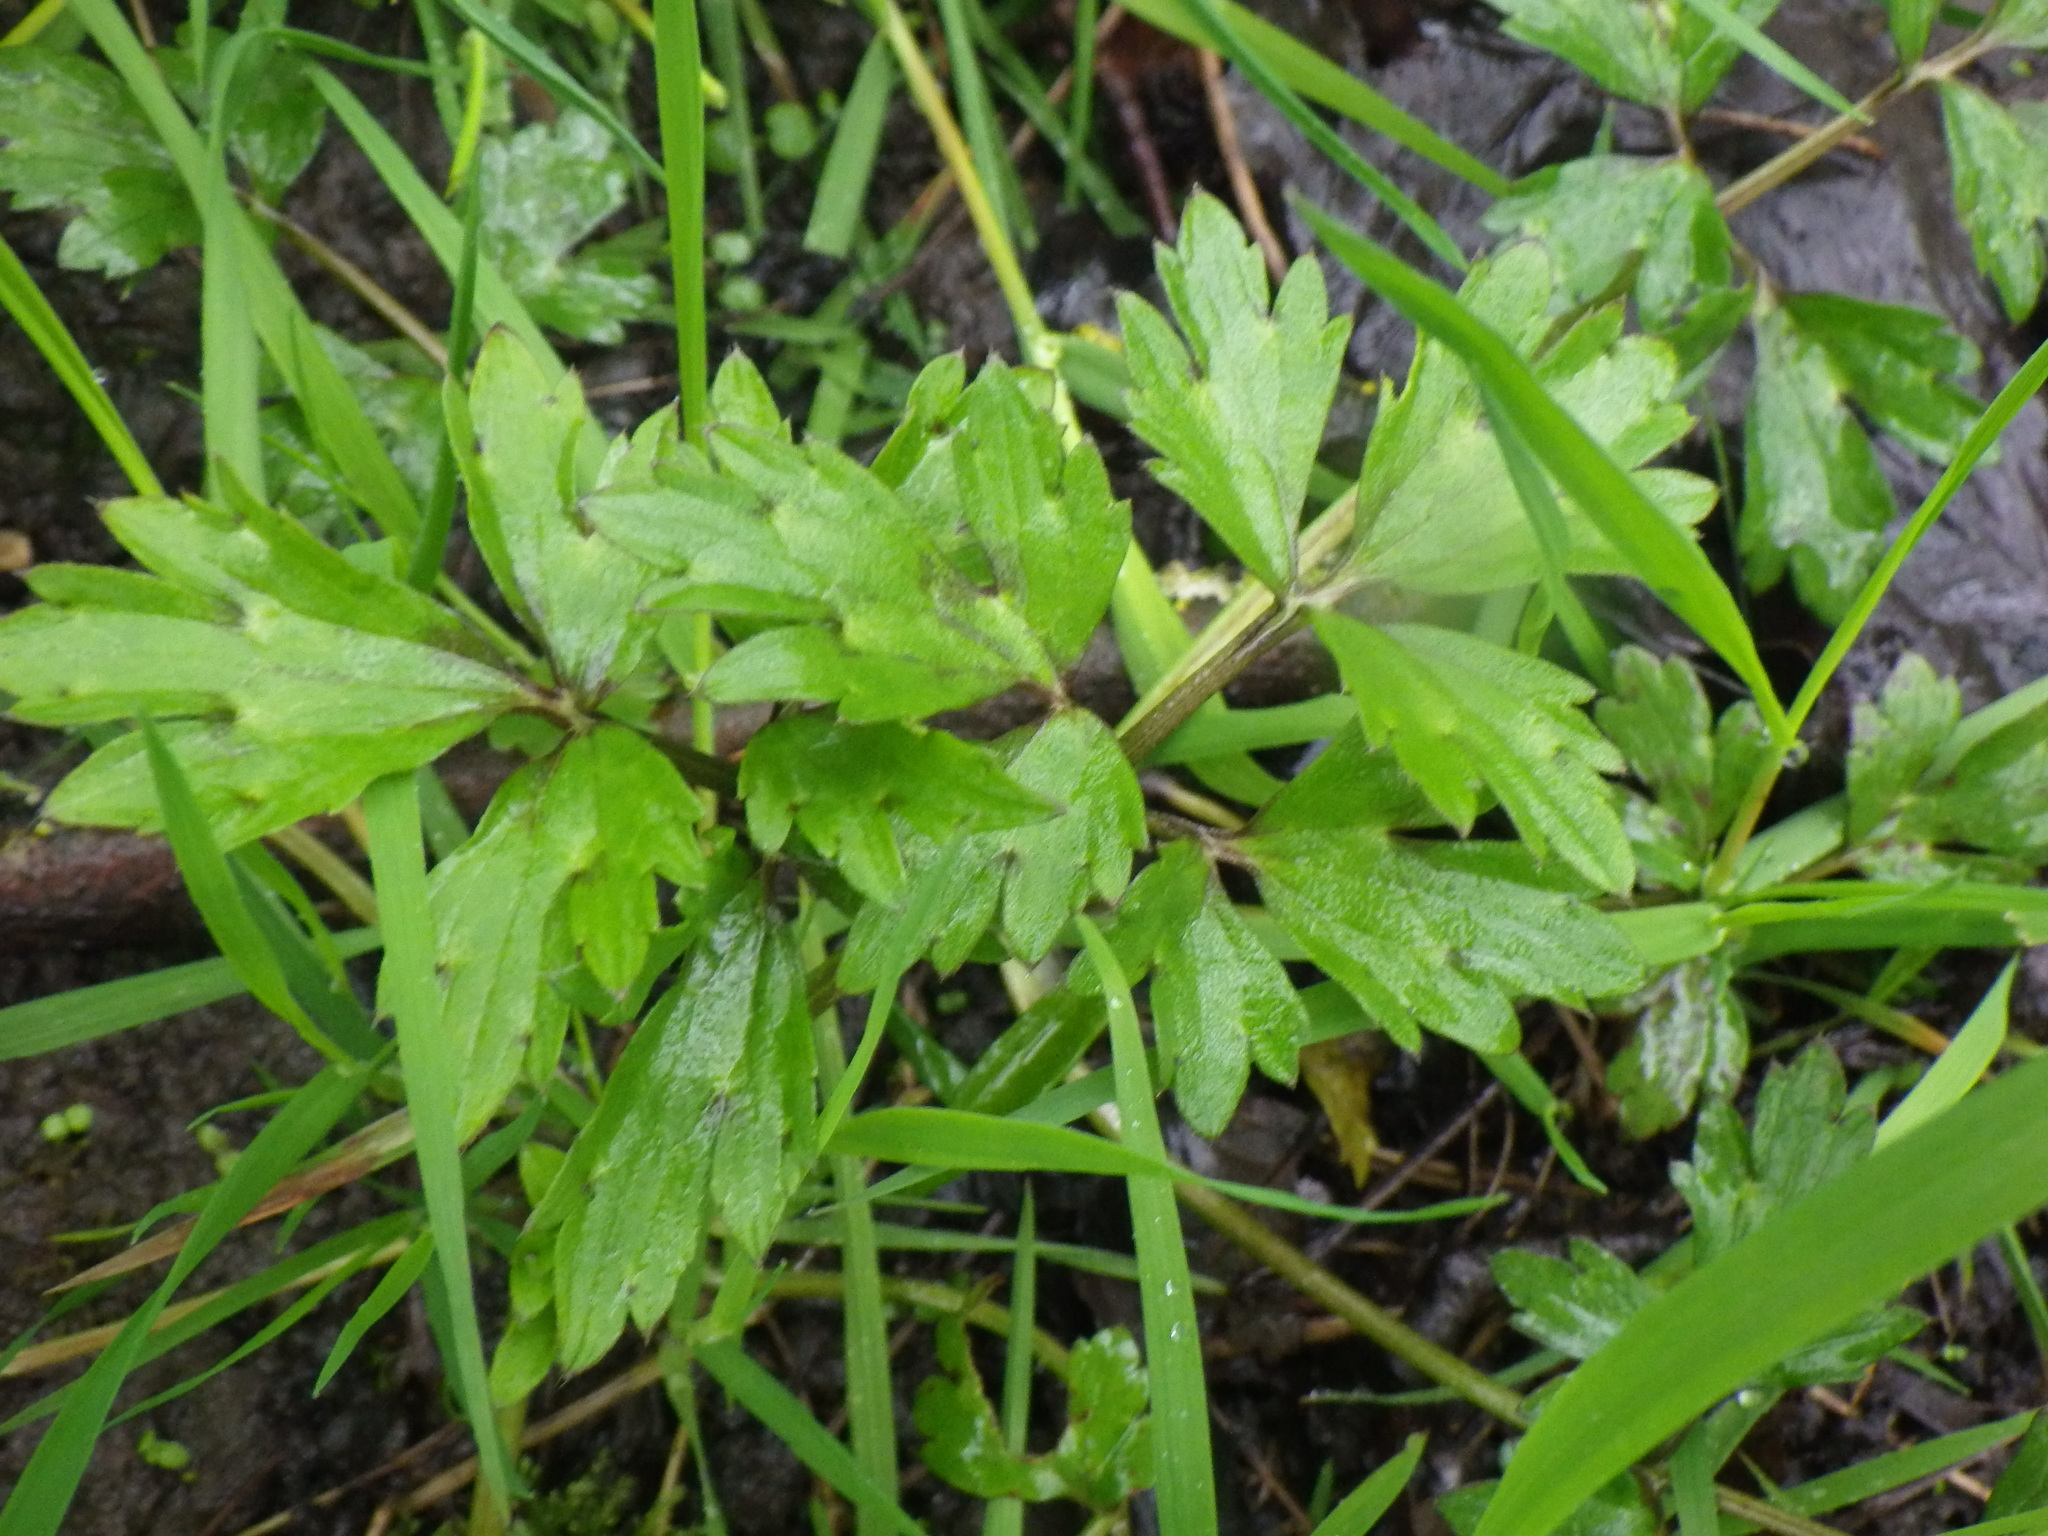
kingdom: Plantae
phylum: Tracheophyta
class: Magnoliopsida
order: Ranunculales
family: Ranunculaceae
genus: Ranunculus
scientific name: Ranunculus repens
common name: Creeping buttercup
